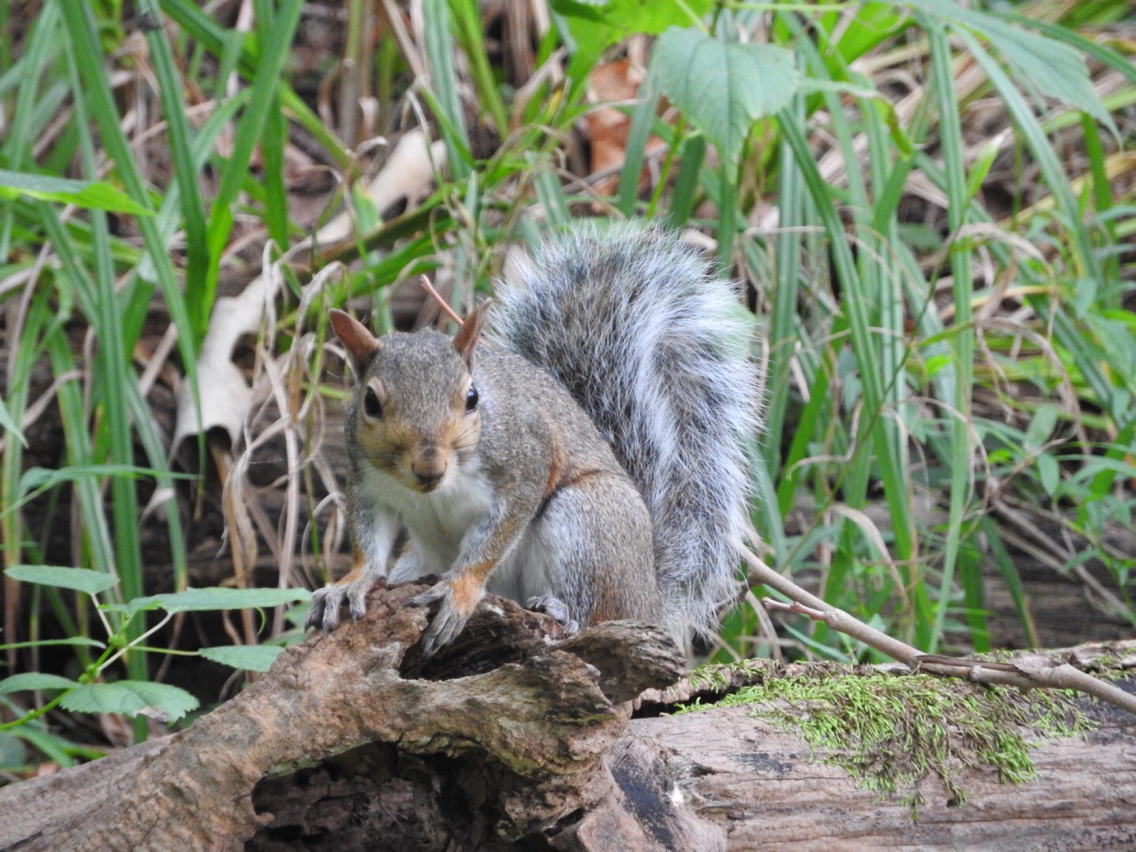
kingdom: Animalia
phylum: Chordata
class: Mammalia
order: Rodentia
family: Sciuridae
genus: Sciurus
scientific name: Sciurus carolinensis
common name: Eastern gray squirrel
